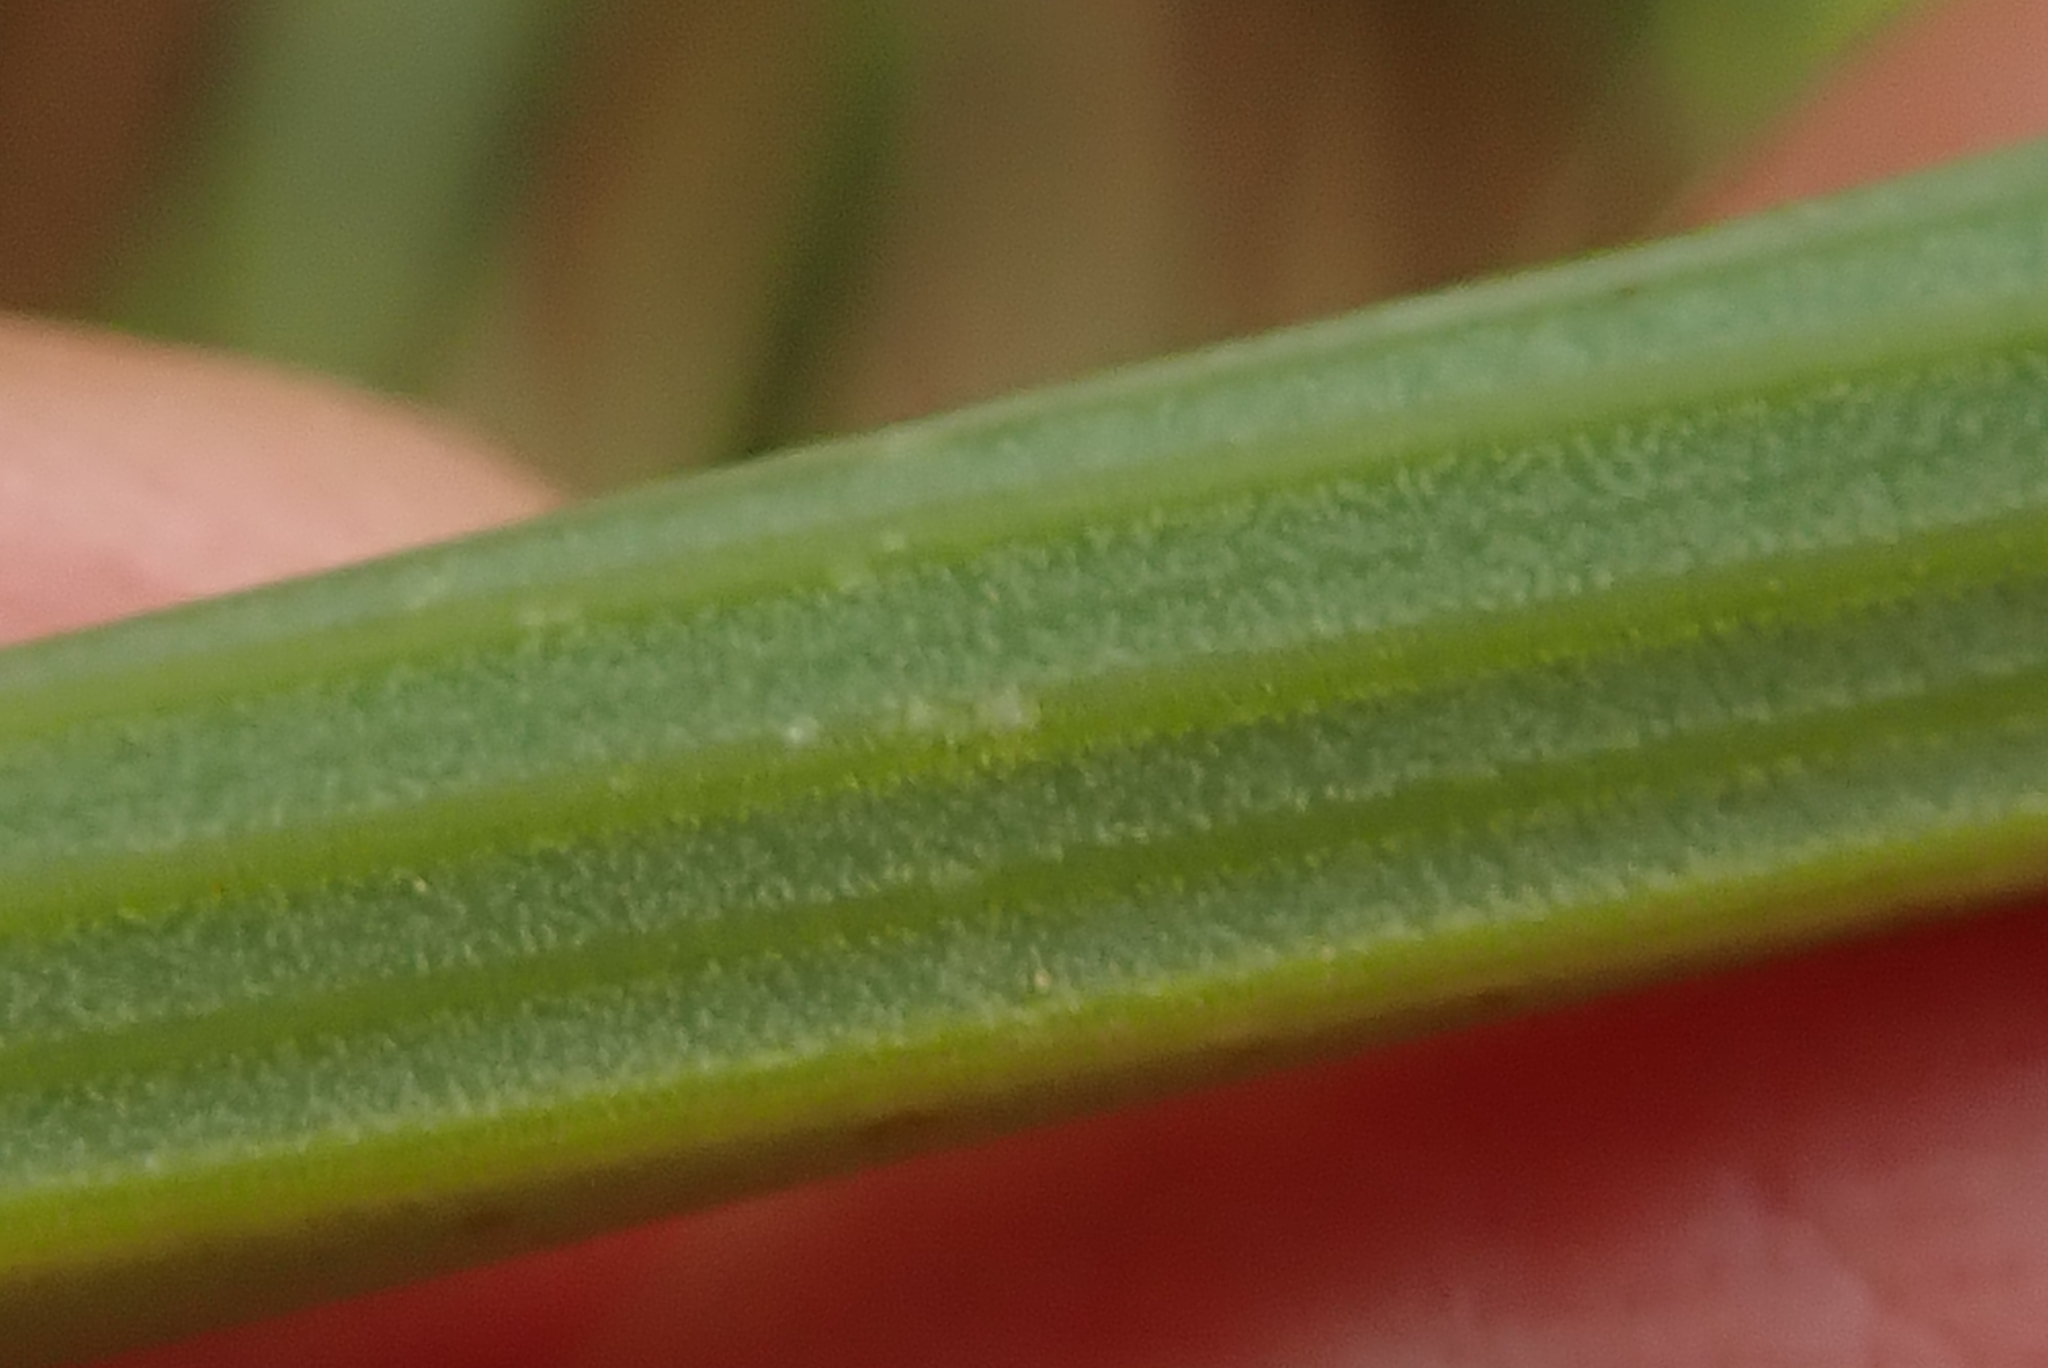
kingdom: Plantae
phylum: Tracheophyta
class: Liliopsida
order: Asparagales
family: Asphodelaceae
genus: Kniphofia
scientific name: Kniphofia stricta
